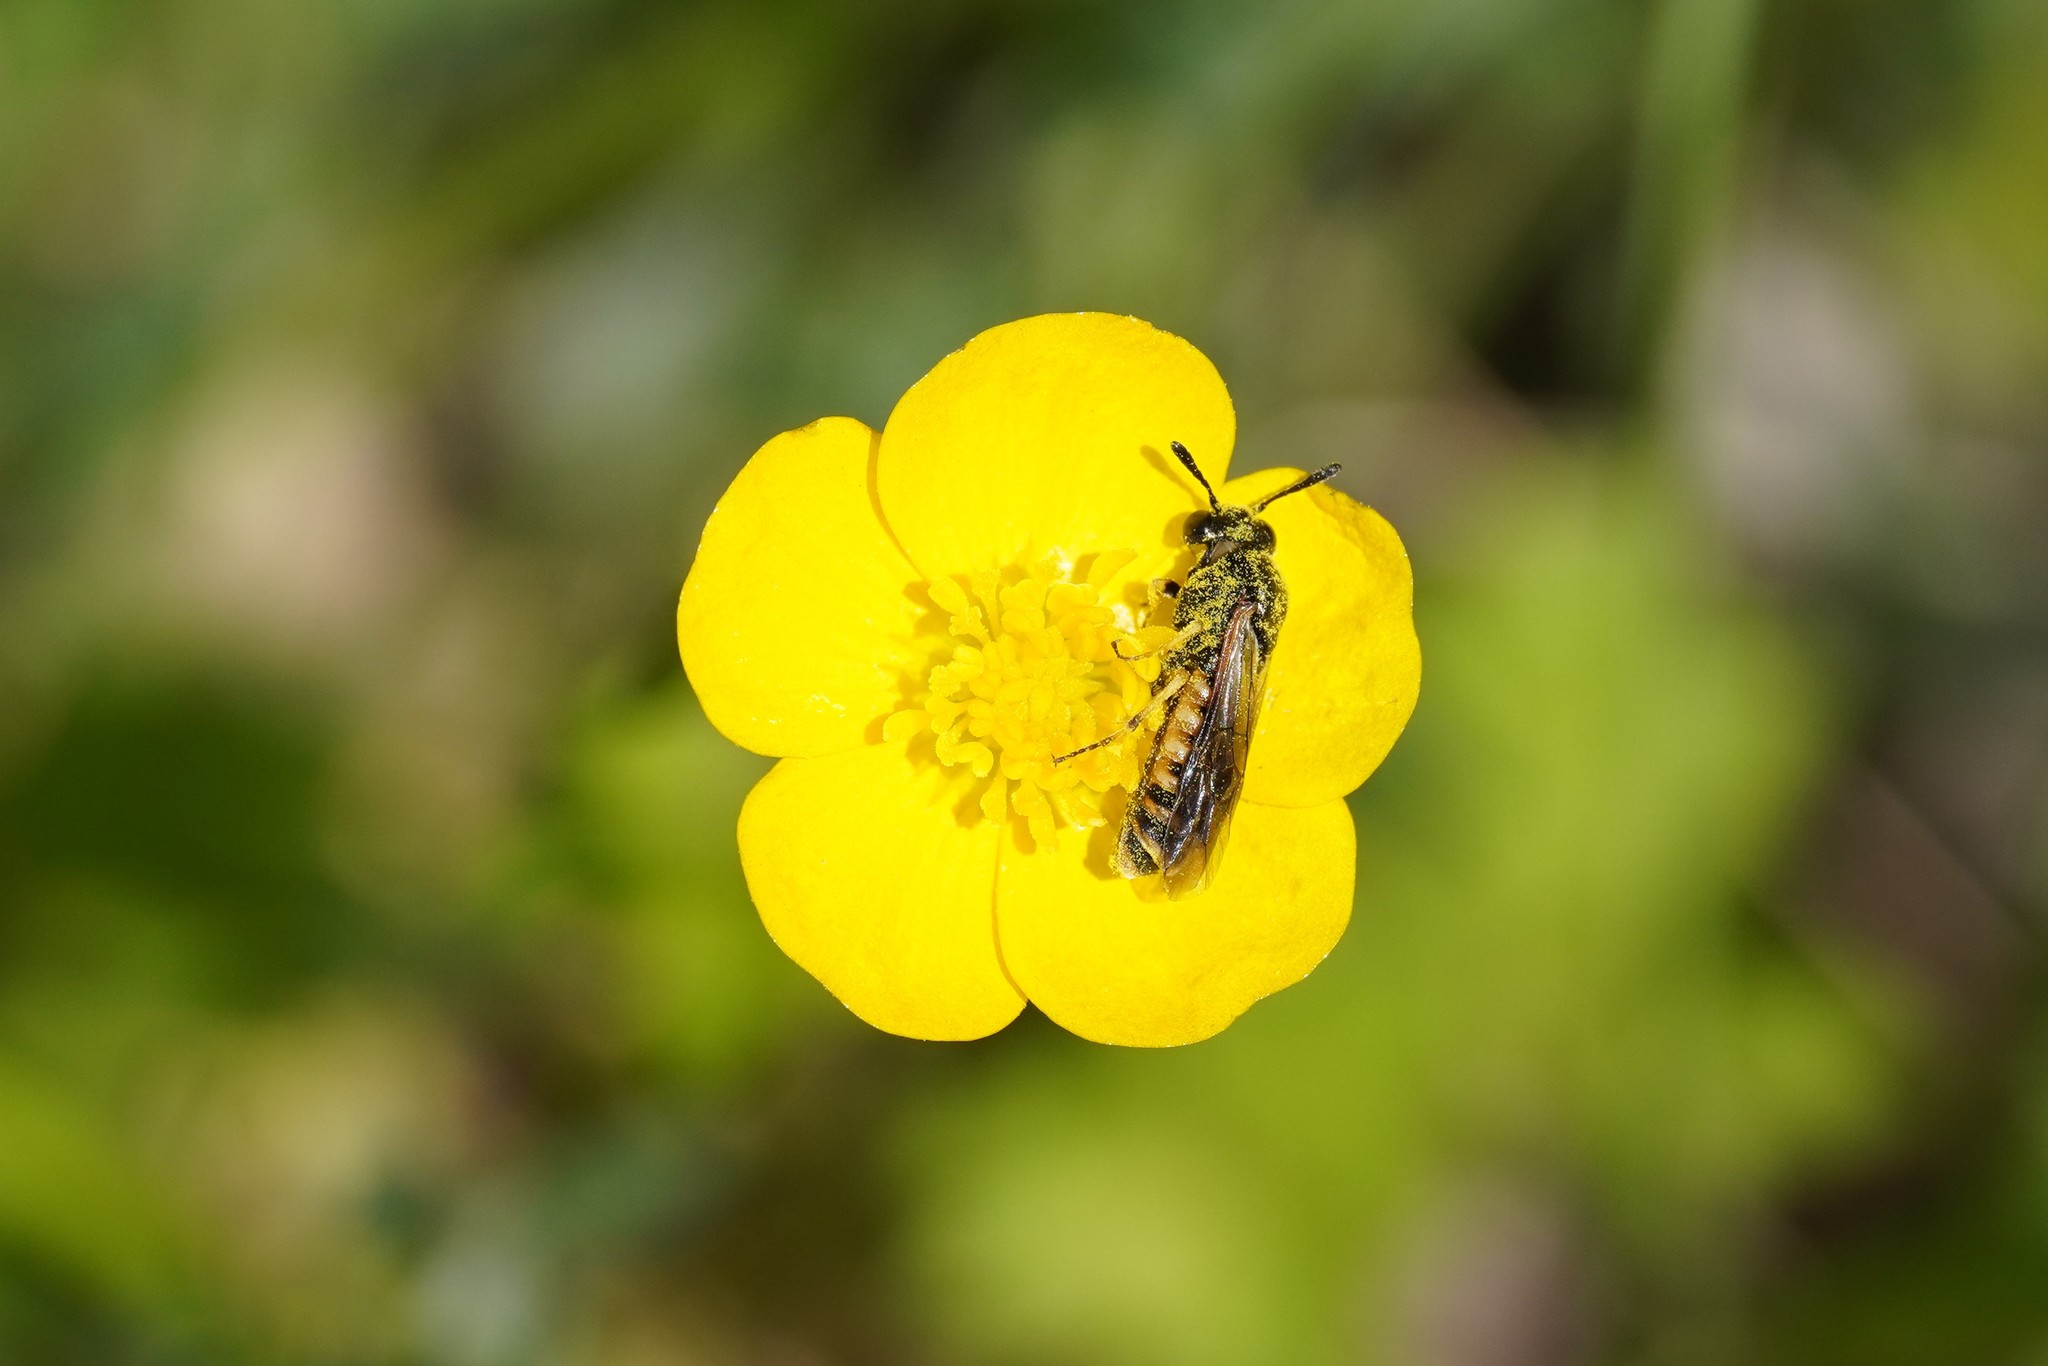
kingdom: Animalia
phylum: Arthropoda
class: Insecta
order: Hymenoptera
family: Cimbicidae
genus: Corynis
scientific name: Corynis crassicornis
